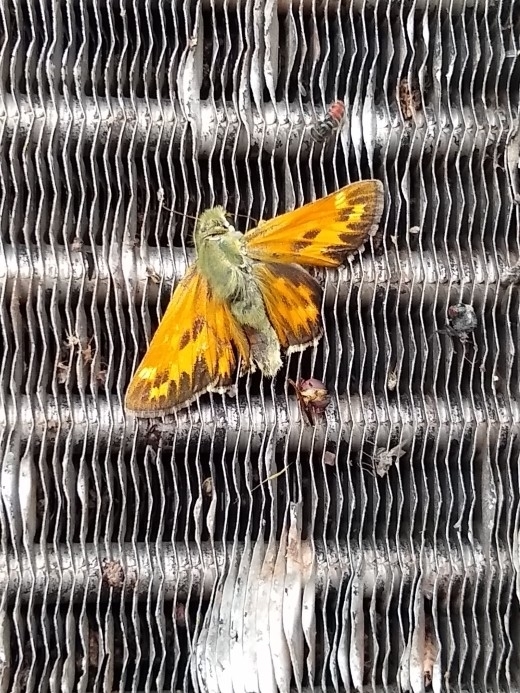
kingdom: Animalia
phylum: Arthropoda
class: Insecta
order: Lepidoptera
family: Hesperiidae
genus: Hesperia
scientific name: Hesperia juba
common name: Juba skipper
